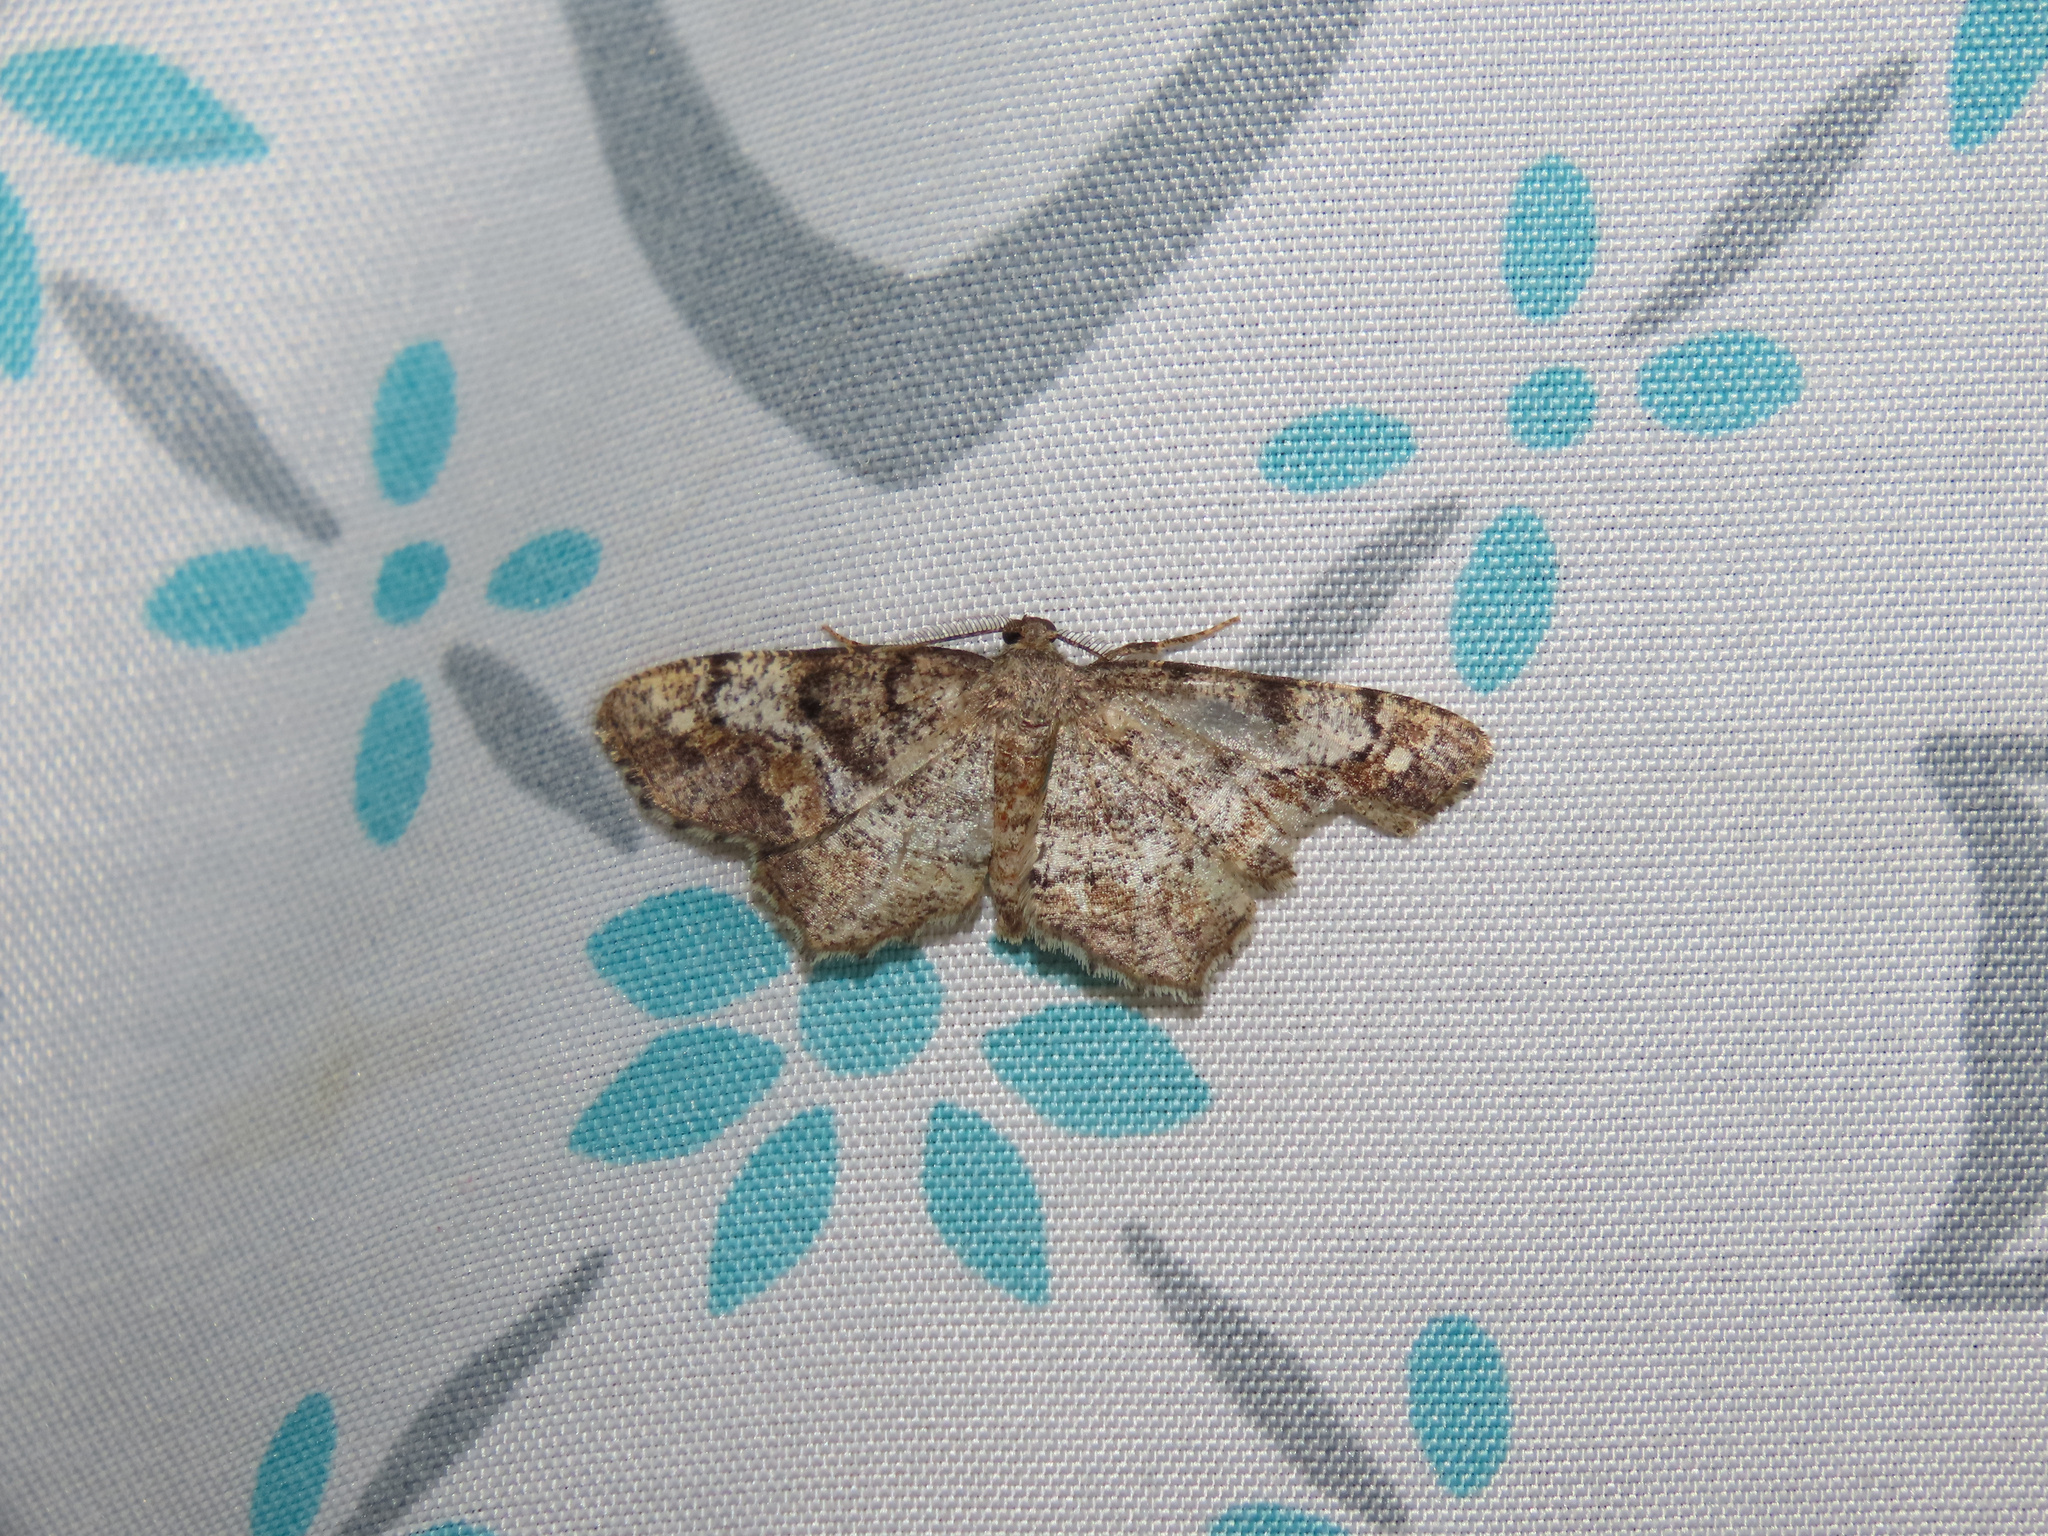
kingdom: Animalia
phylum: Arthropoda
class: Insecta
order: Lepidoptera
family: Geometridae
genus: Hypagyrtis
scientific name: Hypagyrtis unipunctata
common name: One-spotted variant
